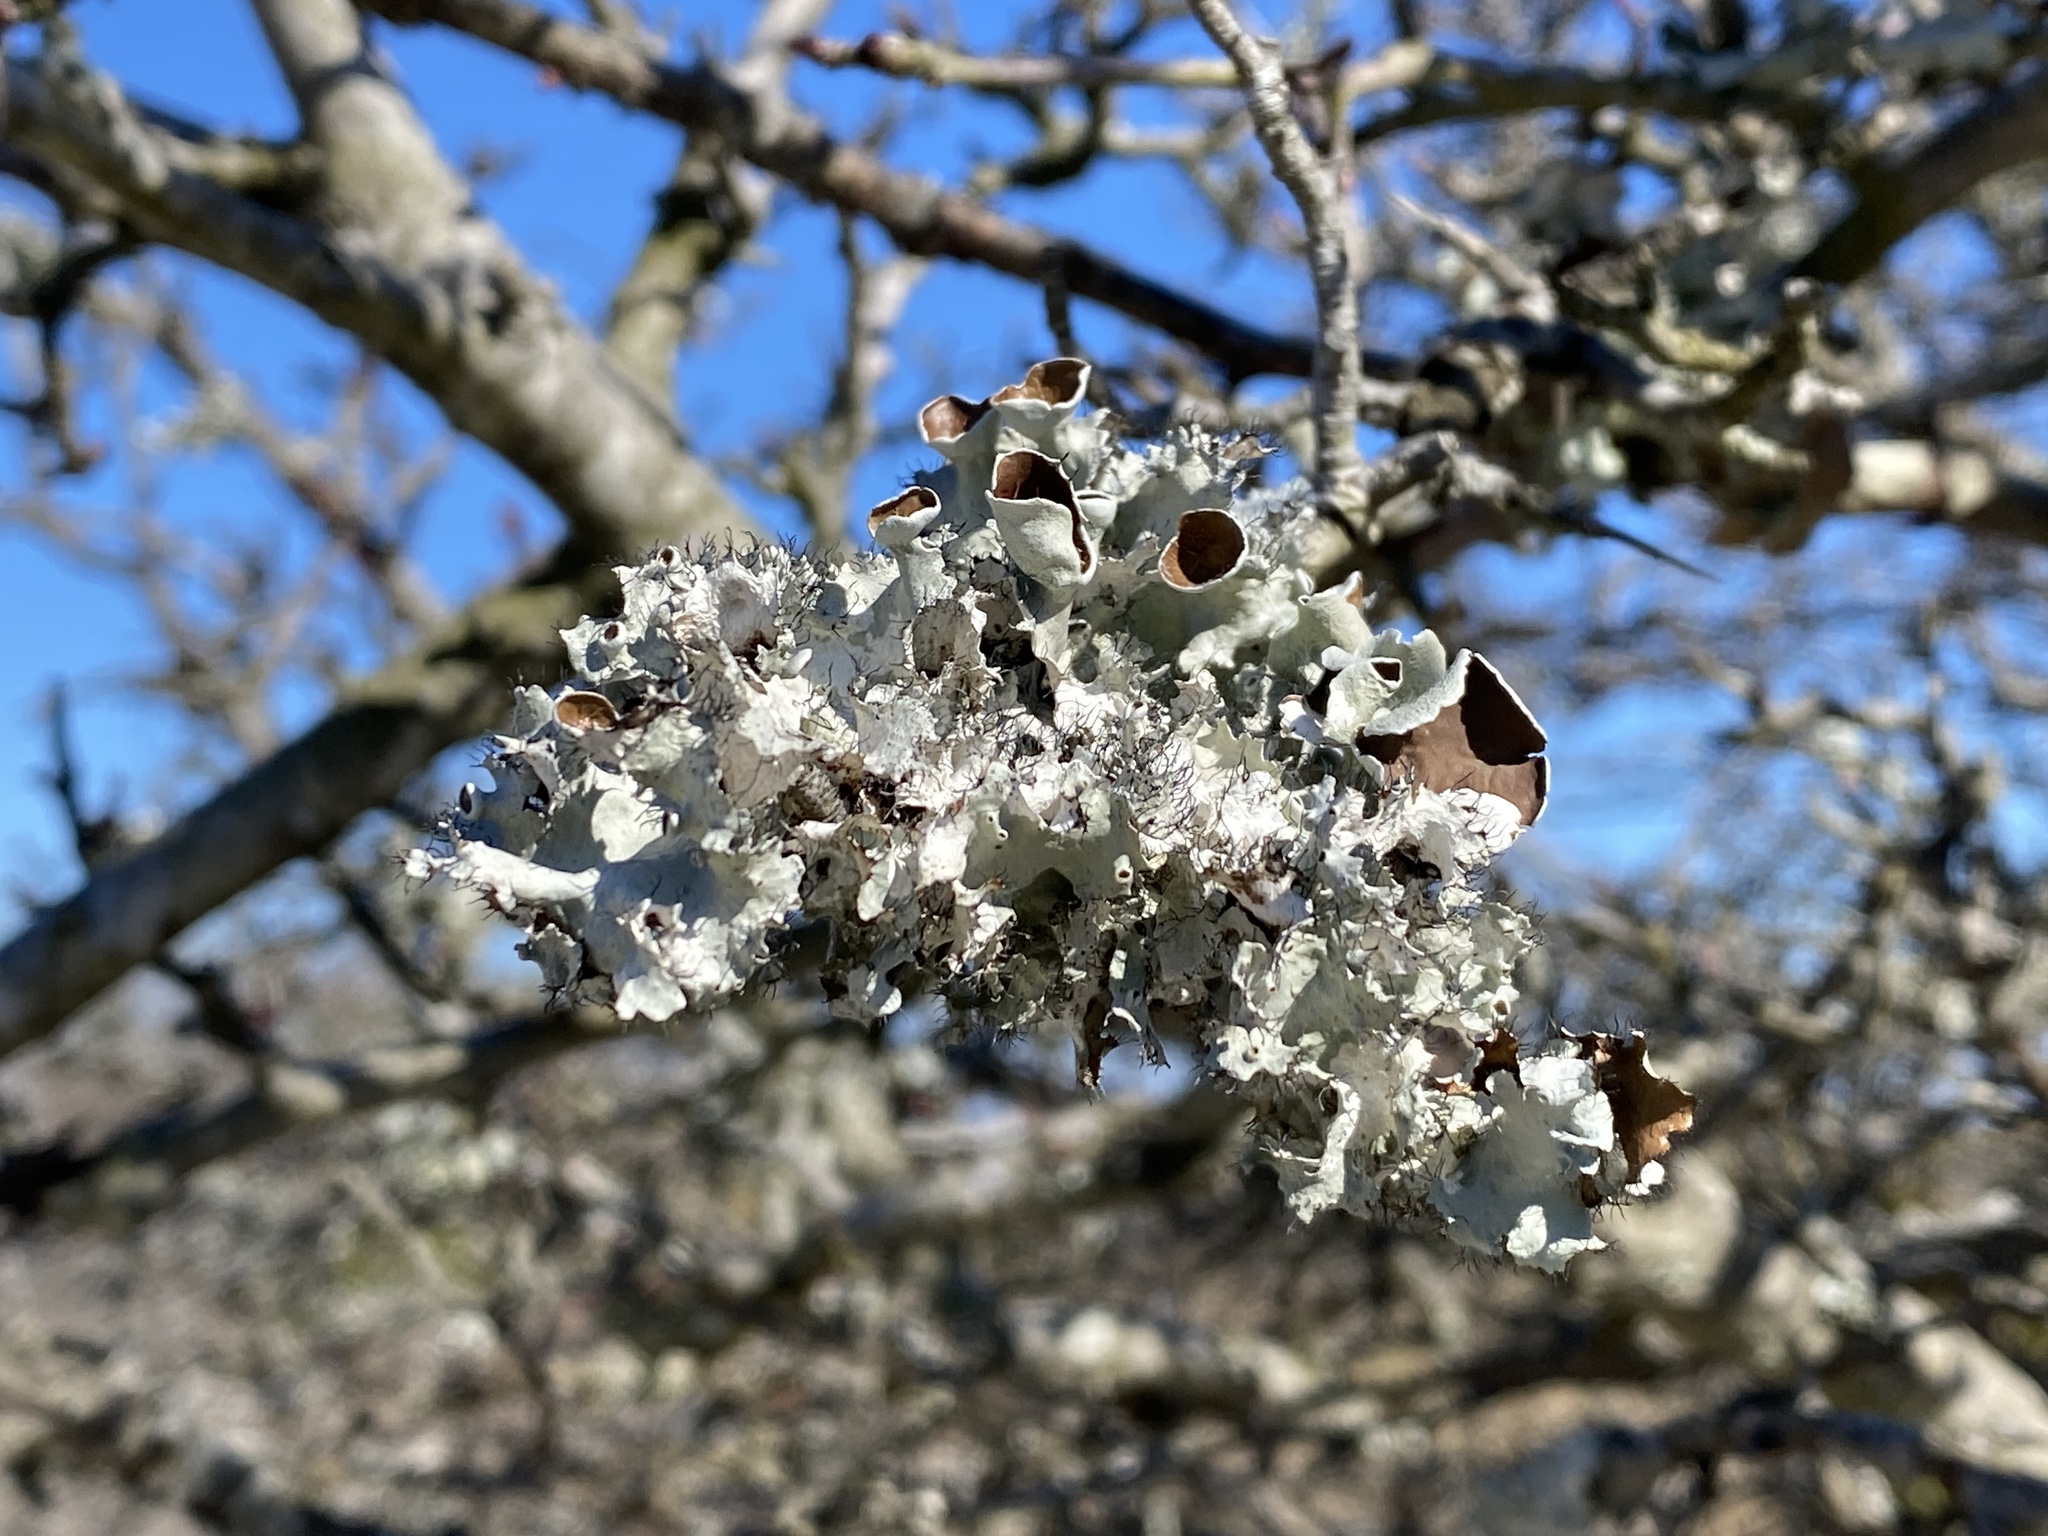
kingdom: Fungi
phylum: Ascomycota
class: Lecanoromycetes
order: Lecanorales
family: Parmeliaceae
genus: Parmotrema
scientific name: Parmotrema hypotropum
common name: Powdered ruffle lichen
